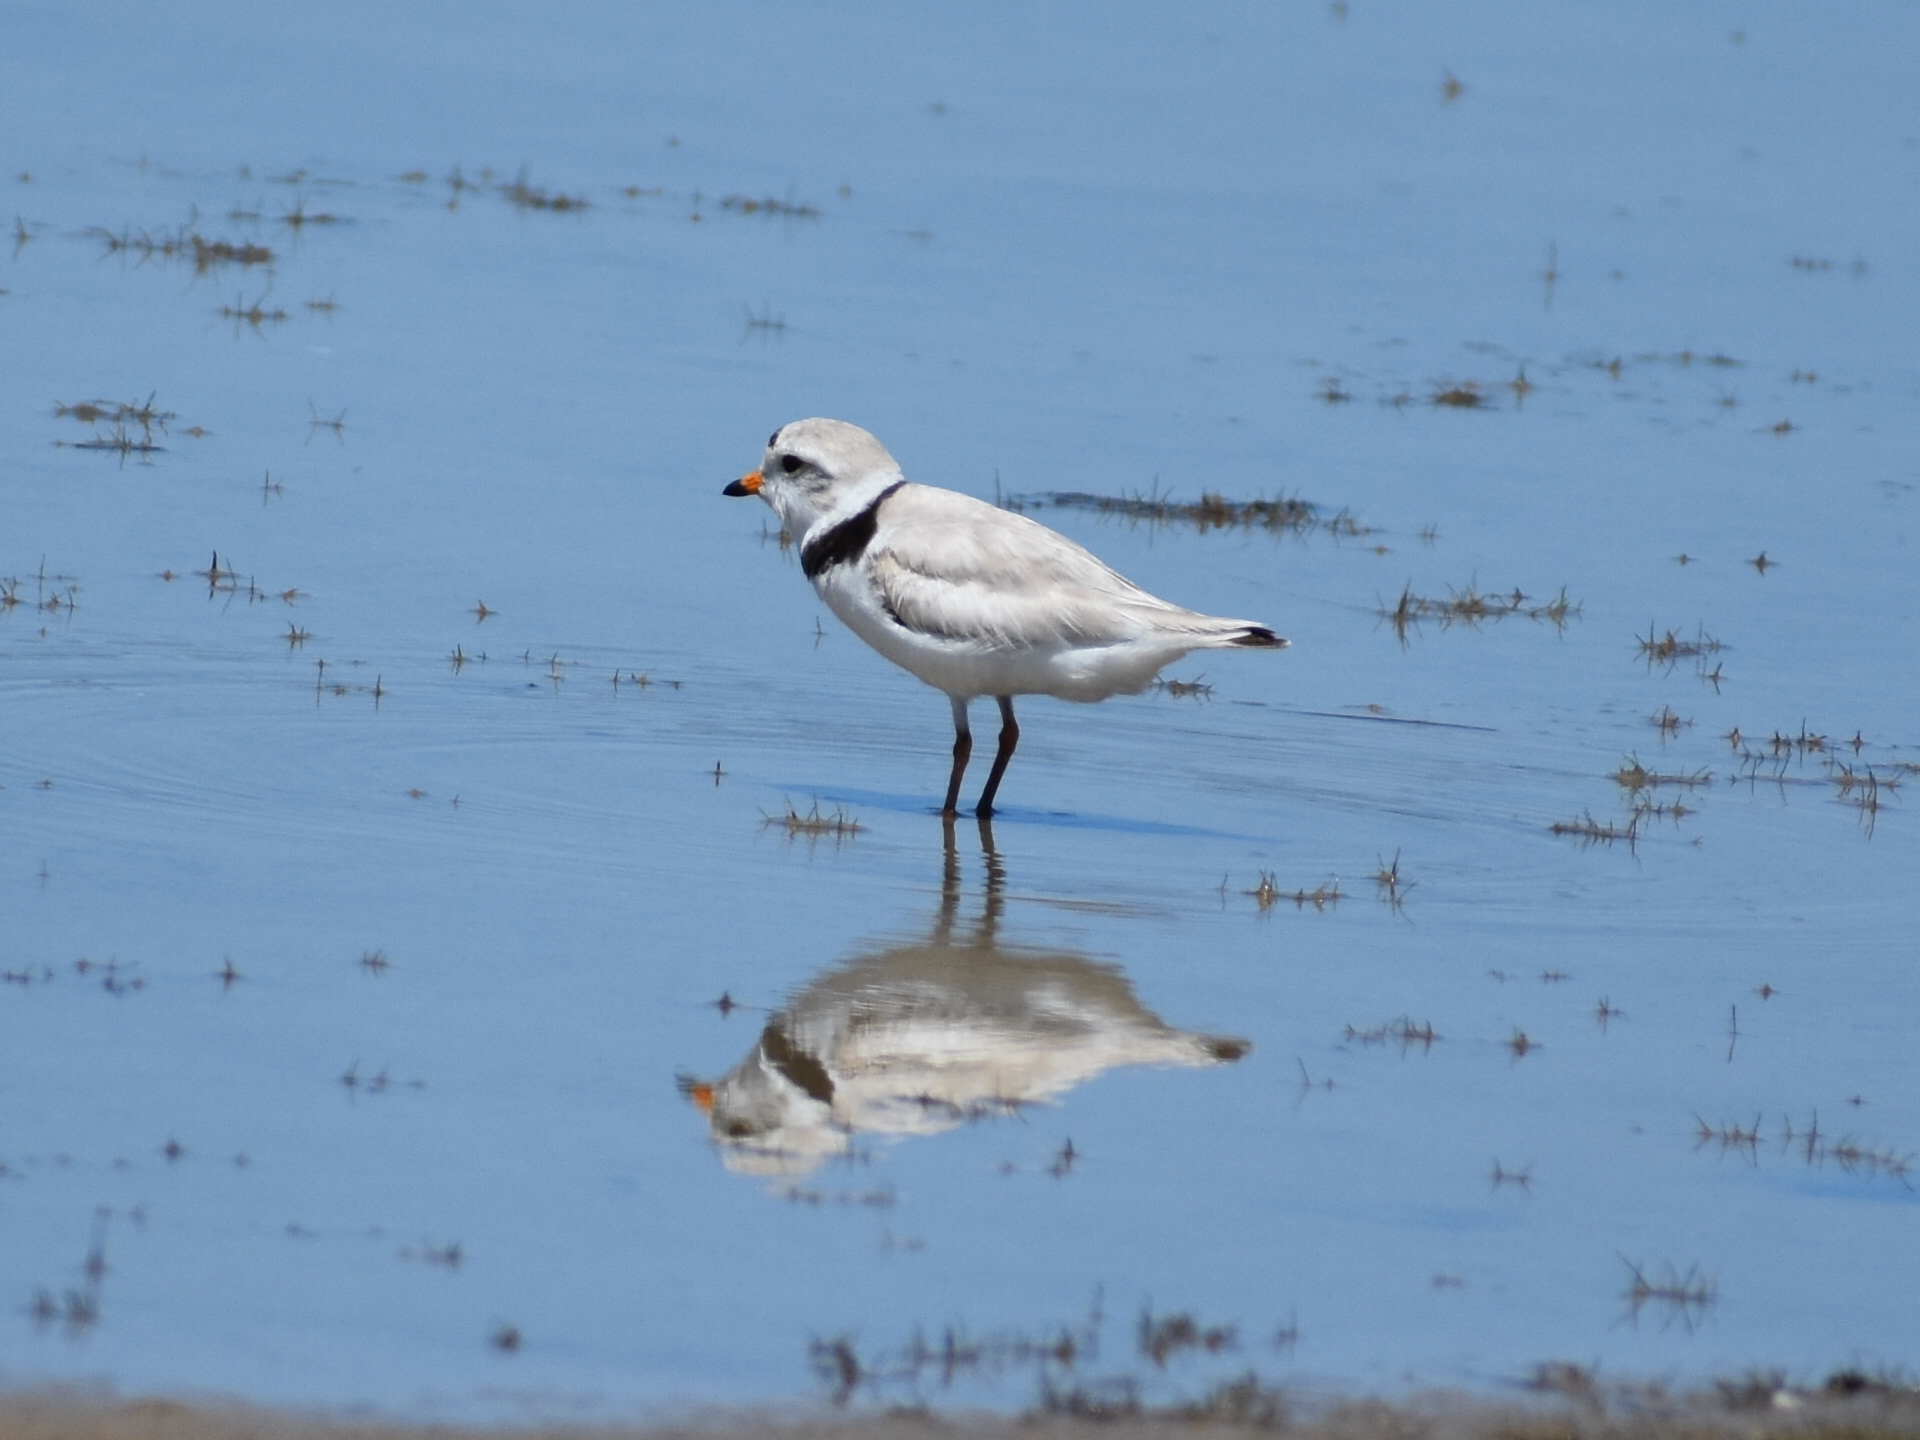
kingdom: Animalia
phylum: Chordata
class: Aves
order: Charadriiformes
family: Charadriidae
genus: Charadrius
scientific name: Charadrius melodus
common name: Piping plover
